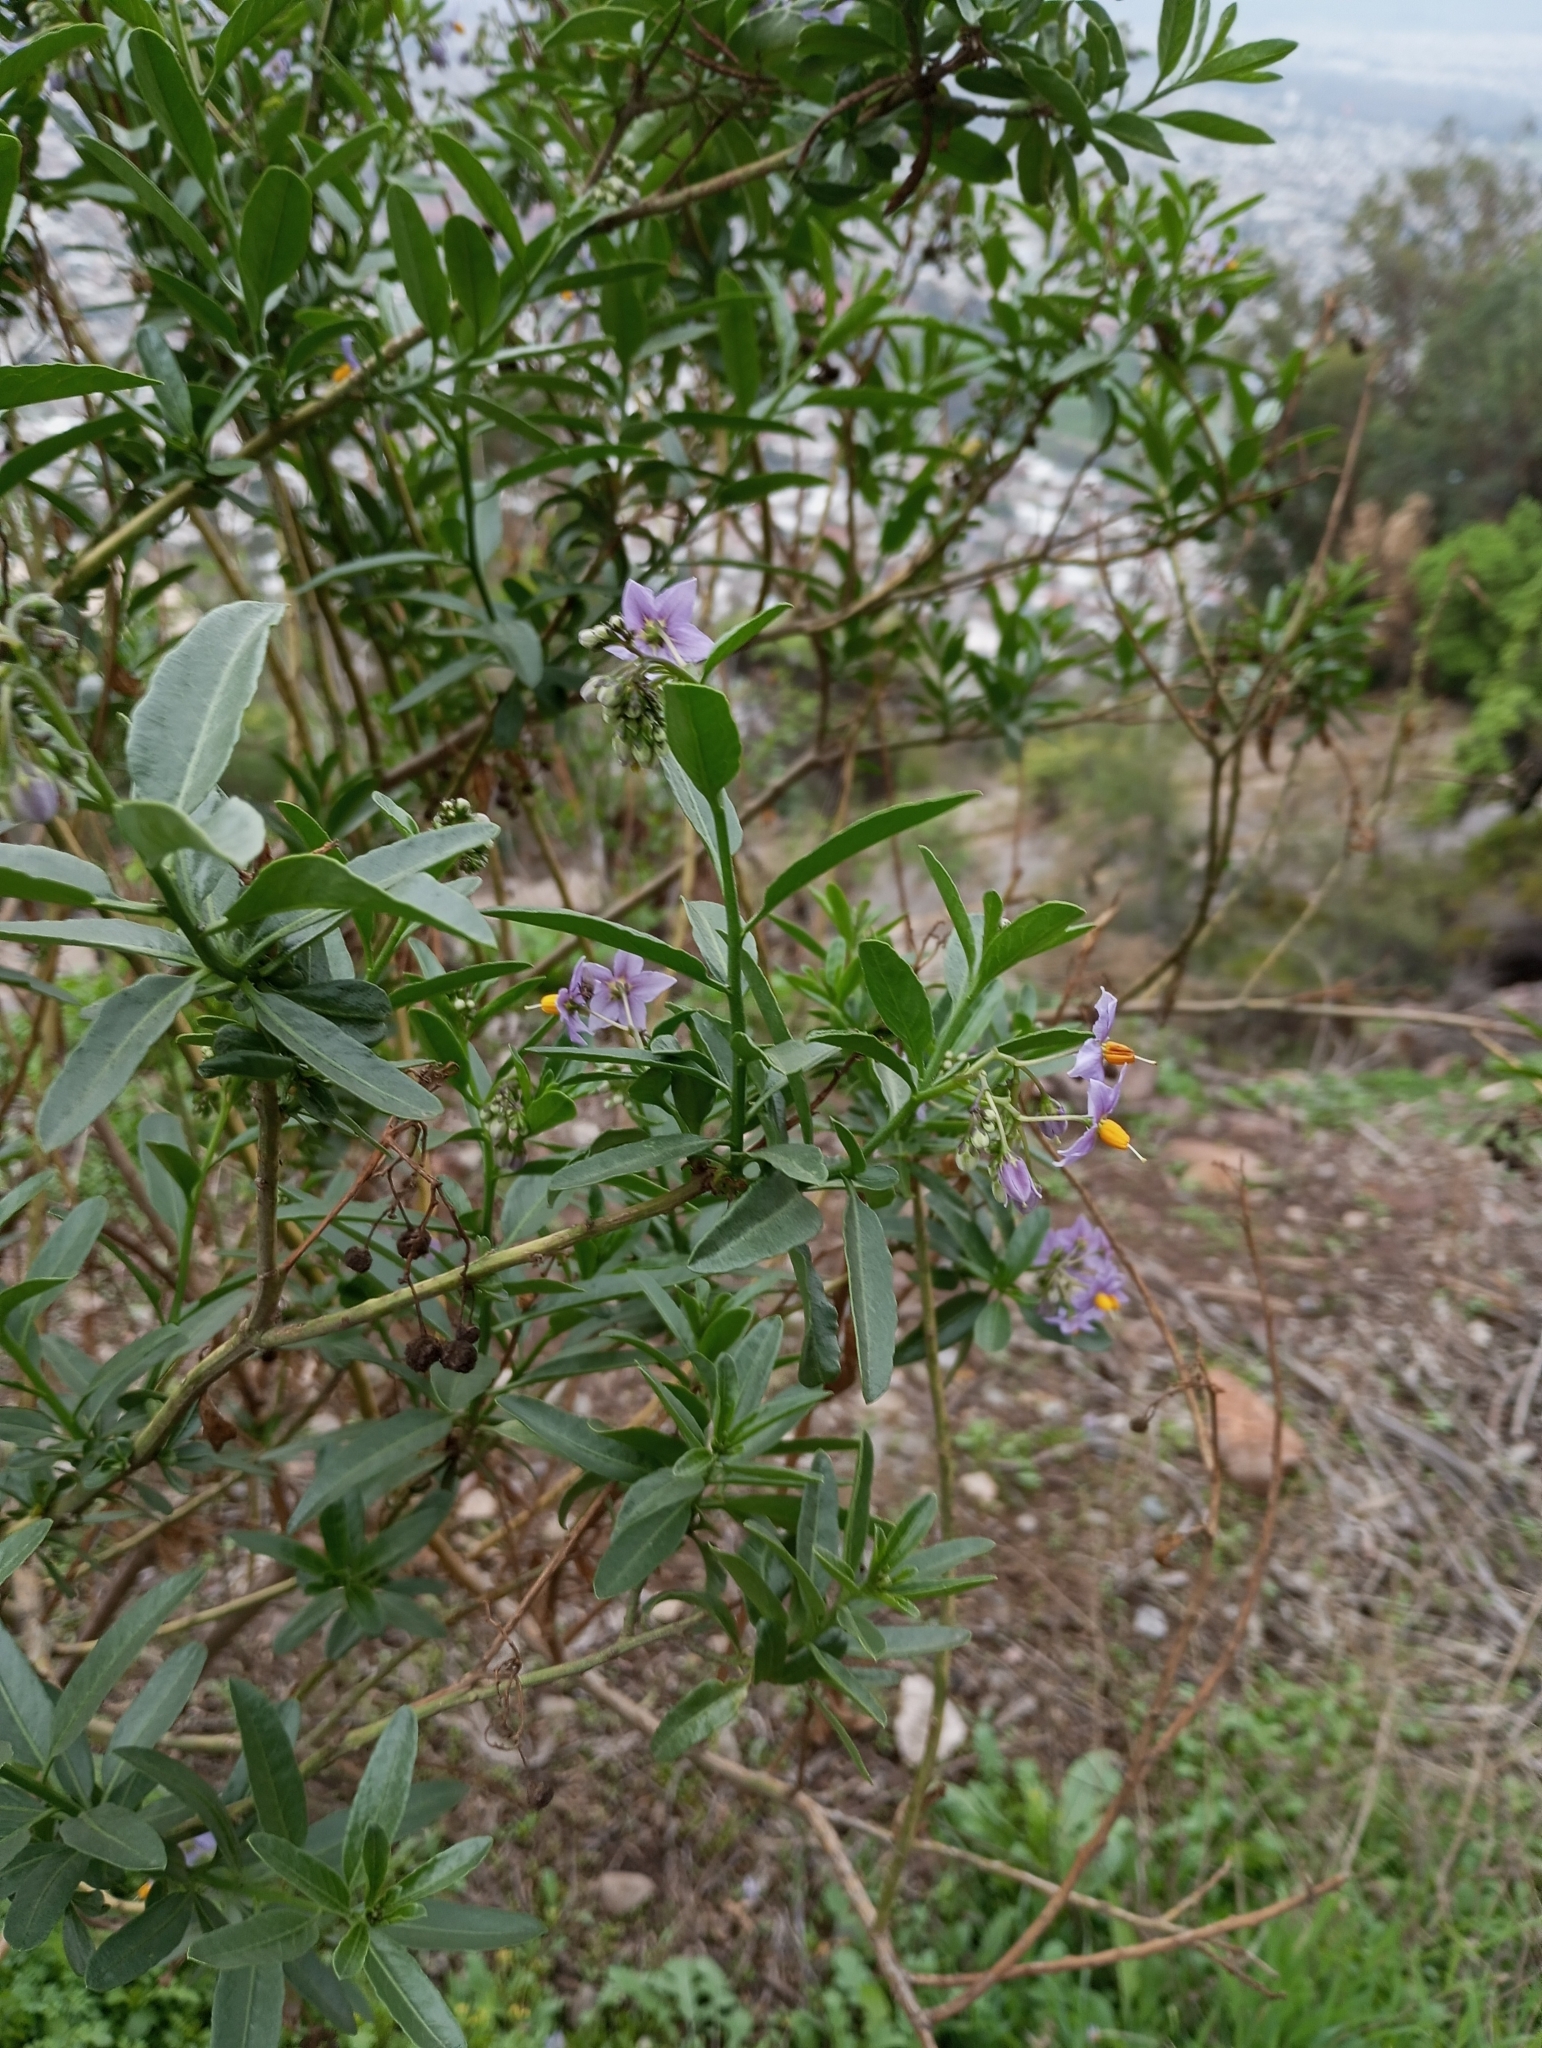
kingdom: Plantae
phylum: Tracheophyta
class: Magnoliopsida
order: Solanales
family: Solanaceae
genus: Solanum
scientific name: Solanum crispum
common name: Chilean nightshade
